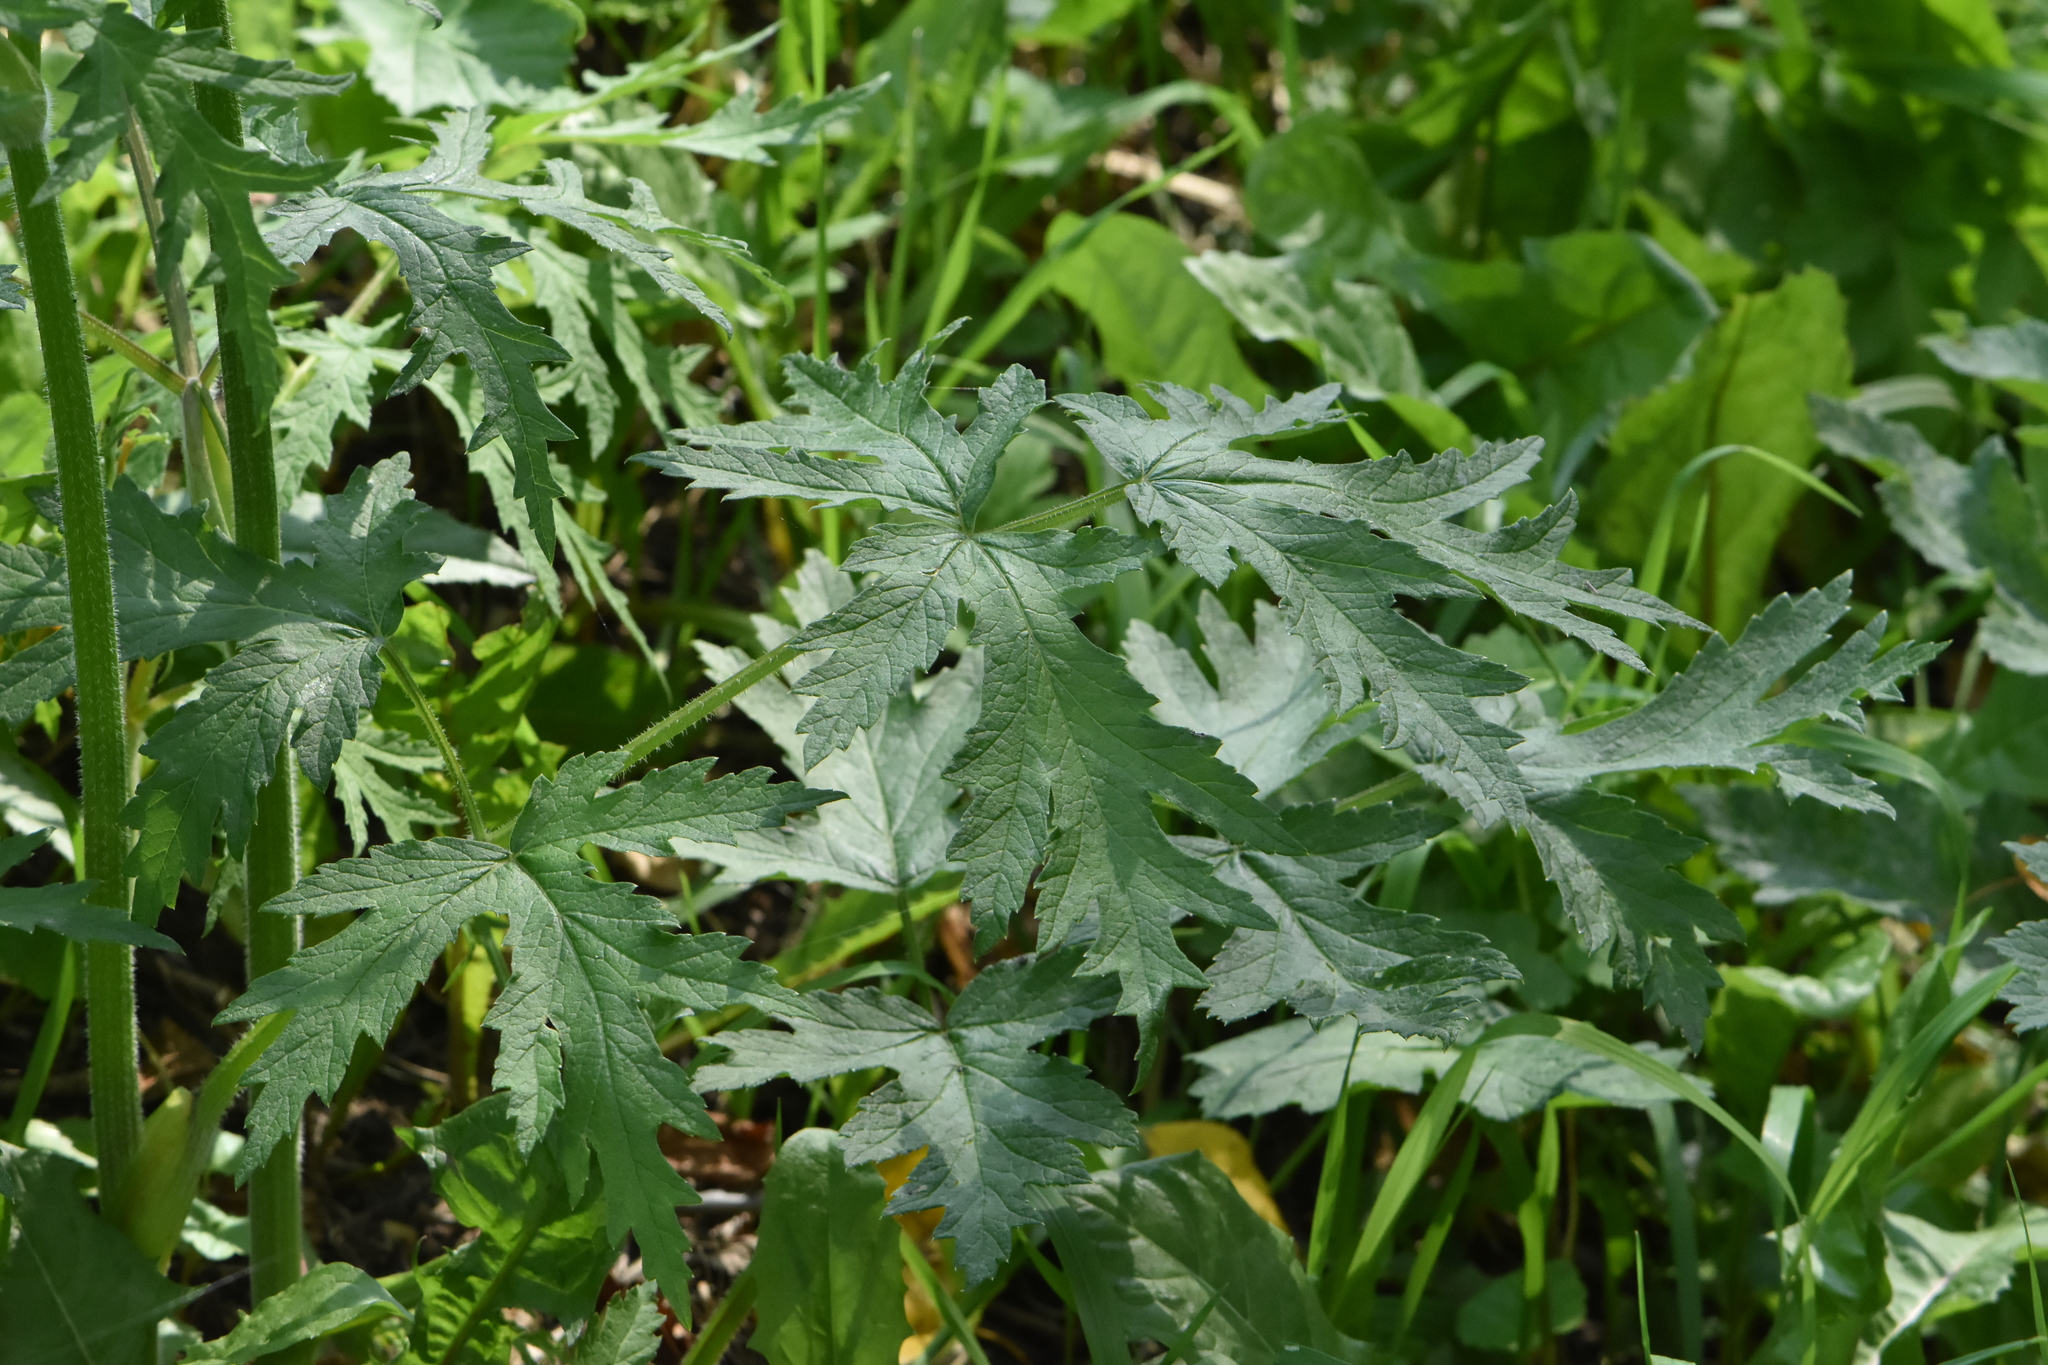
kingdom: Plantae
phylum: Tracheophyta
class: Magnoliopsida
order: Apiales
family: Apiaceae
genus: Heracleum
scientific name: Heracleum sphondylium
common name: Hogweed
